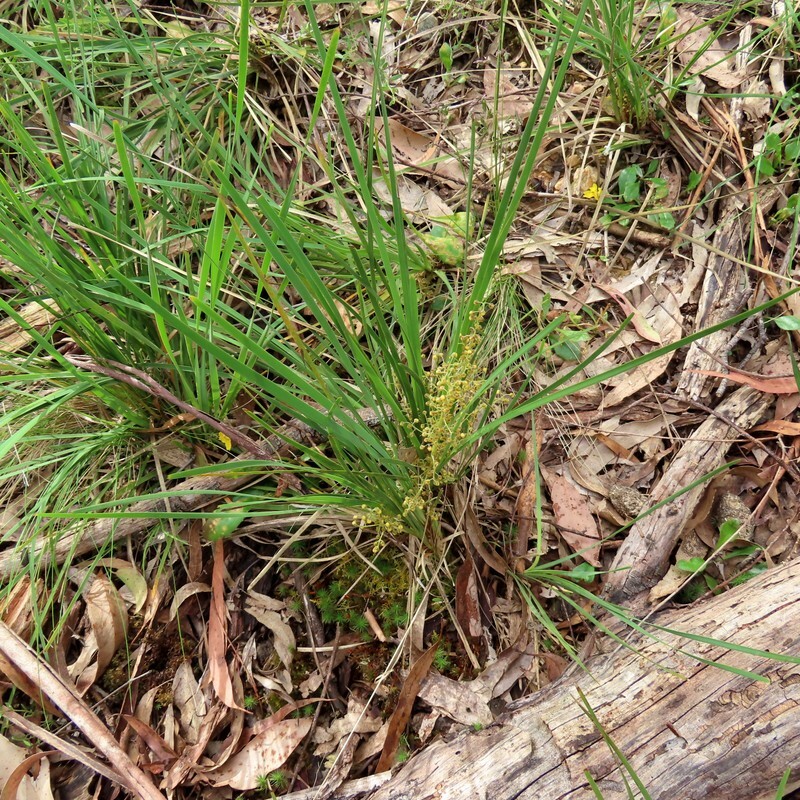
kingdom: Plantae
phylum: Tracheophyta
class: Liliopsida
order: Asparagales
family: Asparagaceae
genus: Lomandra
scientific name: Lomandra filiformis
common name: Wattle mat-rush
